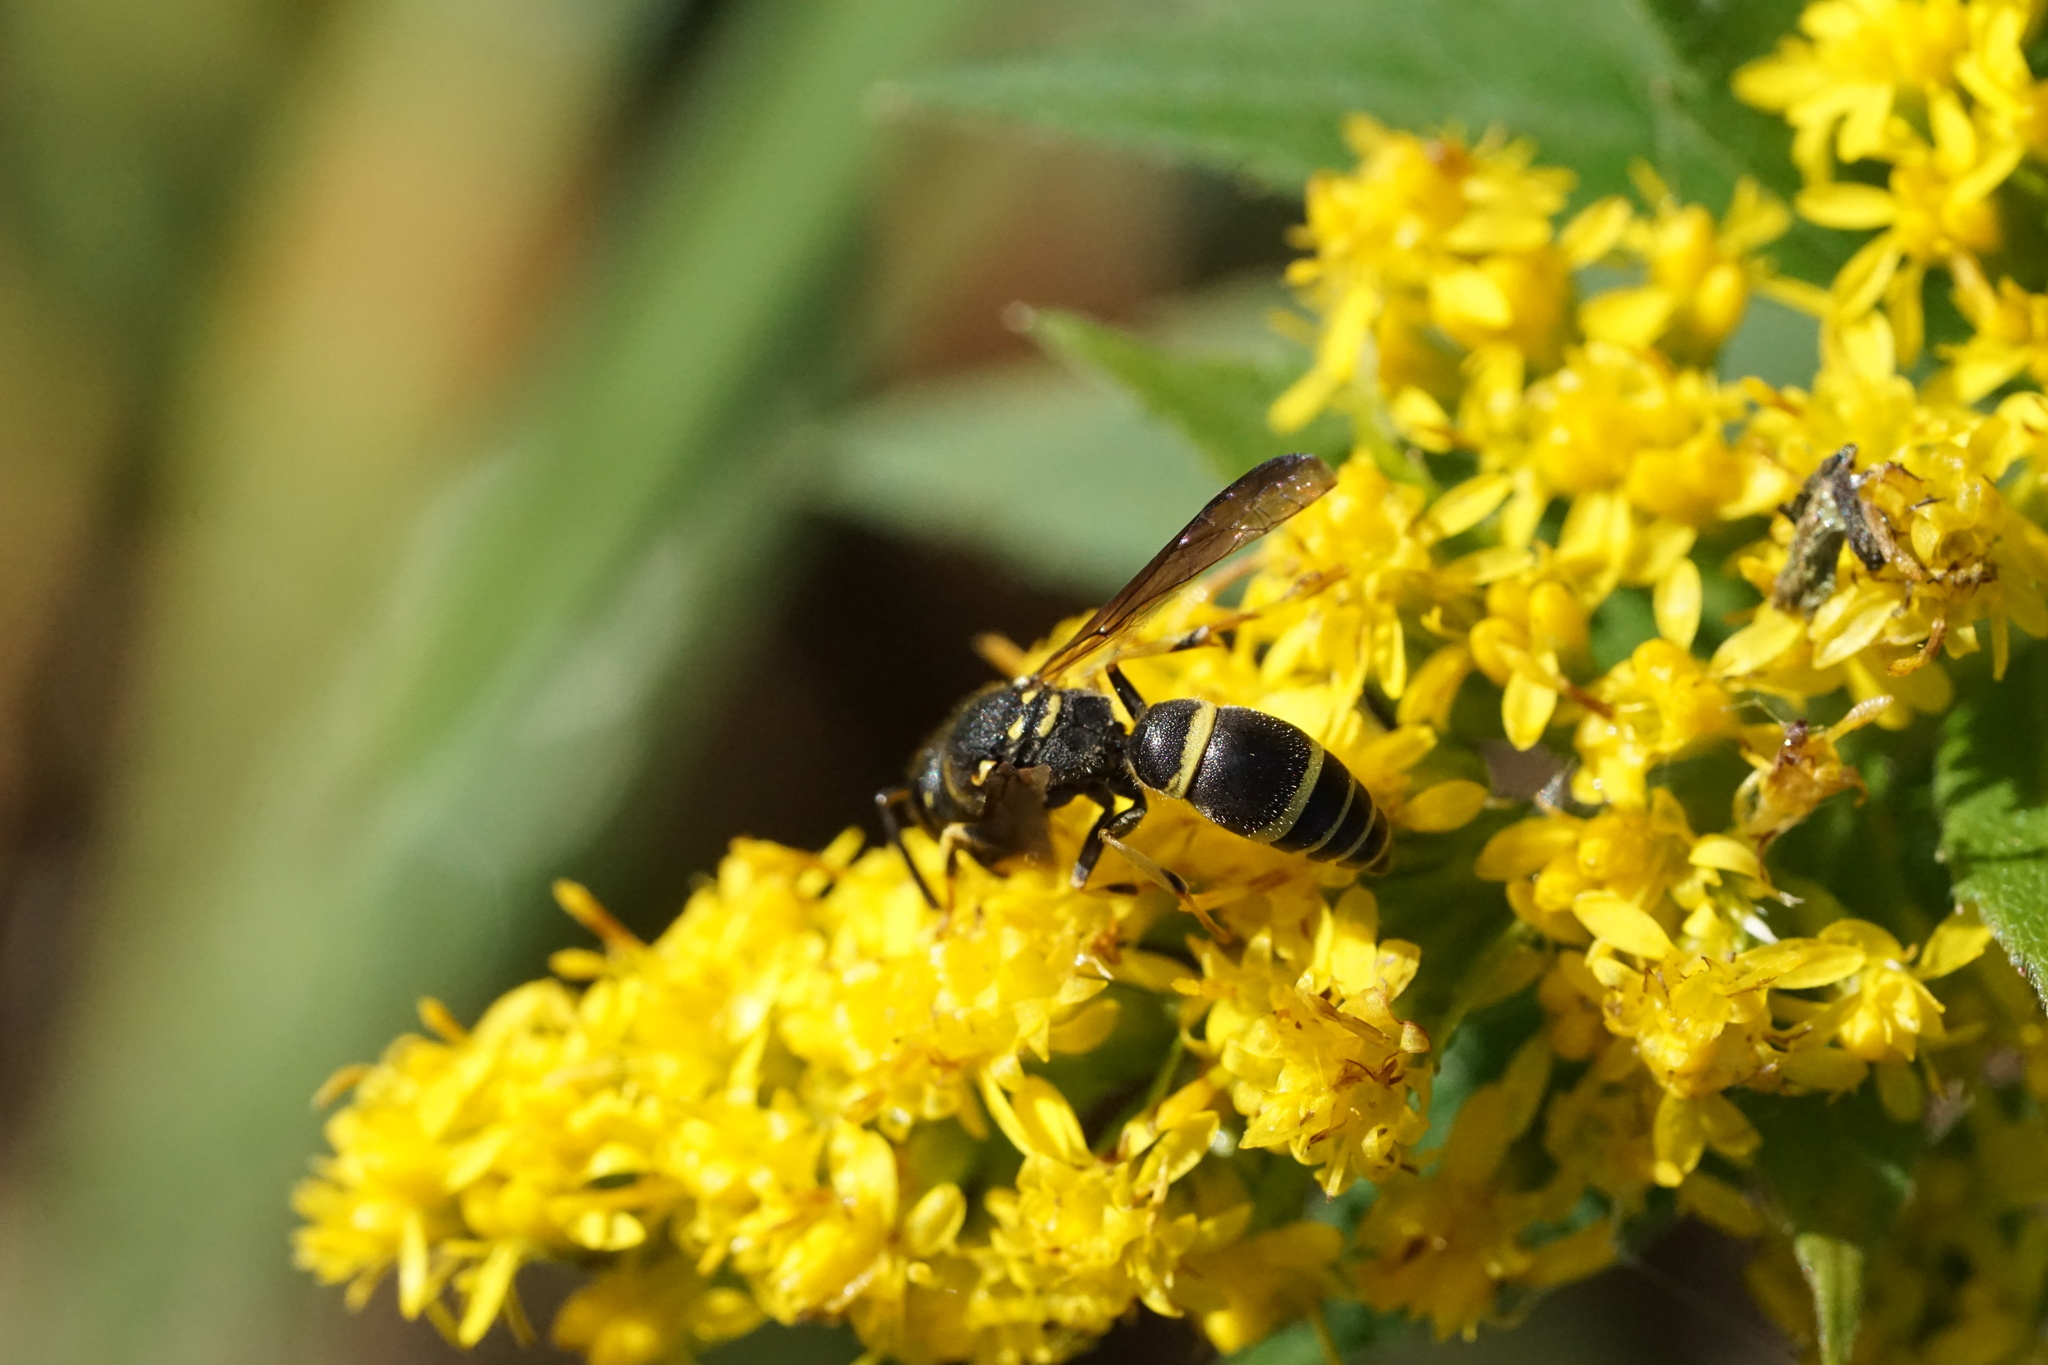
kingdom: Animalia
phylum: Arthropoda
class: Insecta
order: Hymenoptera
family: Vespidae
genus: Ancistrocerus
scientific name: Ancistrocerus adiabatus
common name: Bramble mason wasp
